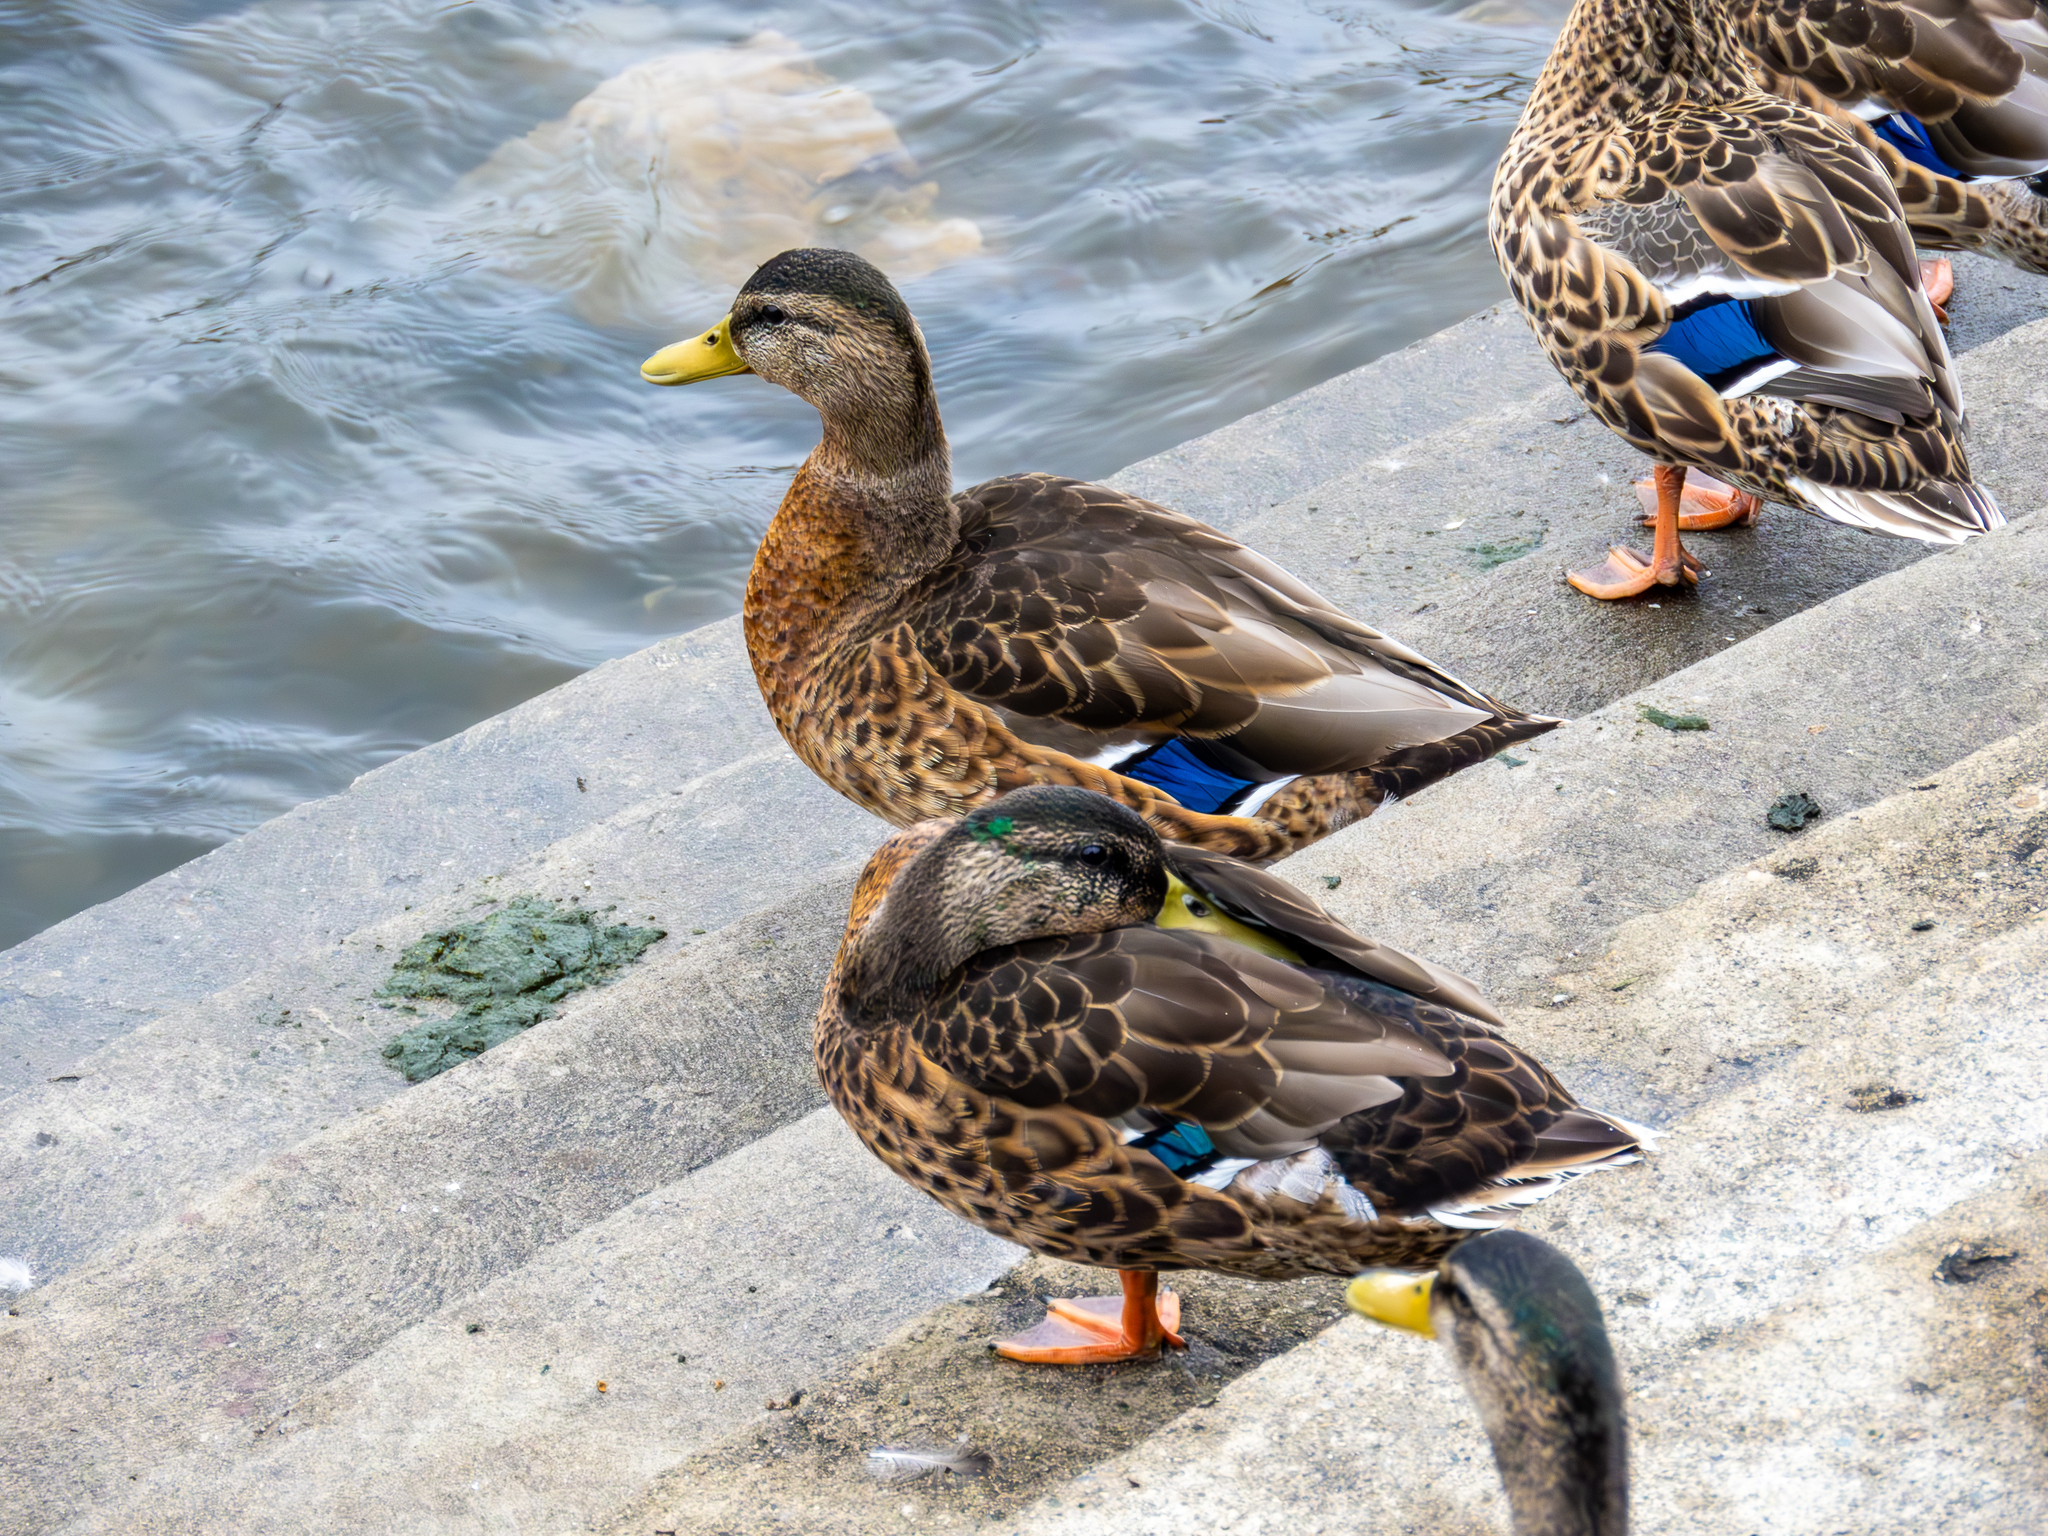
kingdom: Animalia
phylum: Chordata
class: Aves
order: Anseriformes
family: Anatidae
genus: Anas
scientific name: Anas platyrhynchos
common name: Mallard
